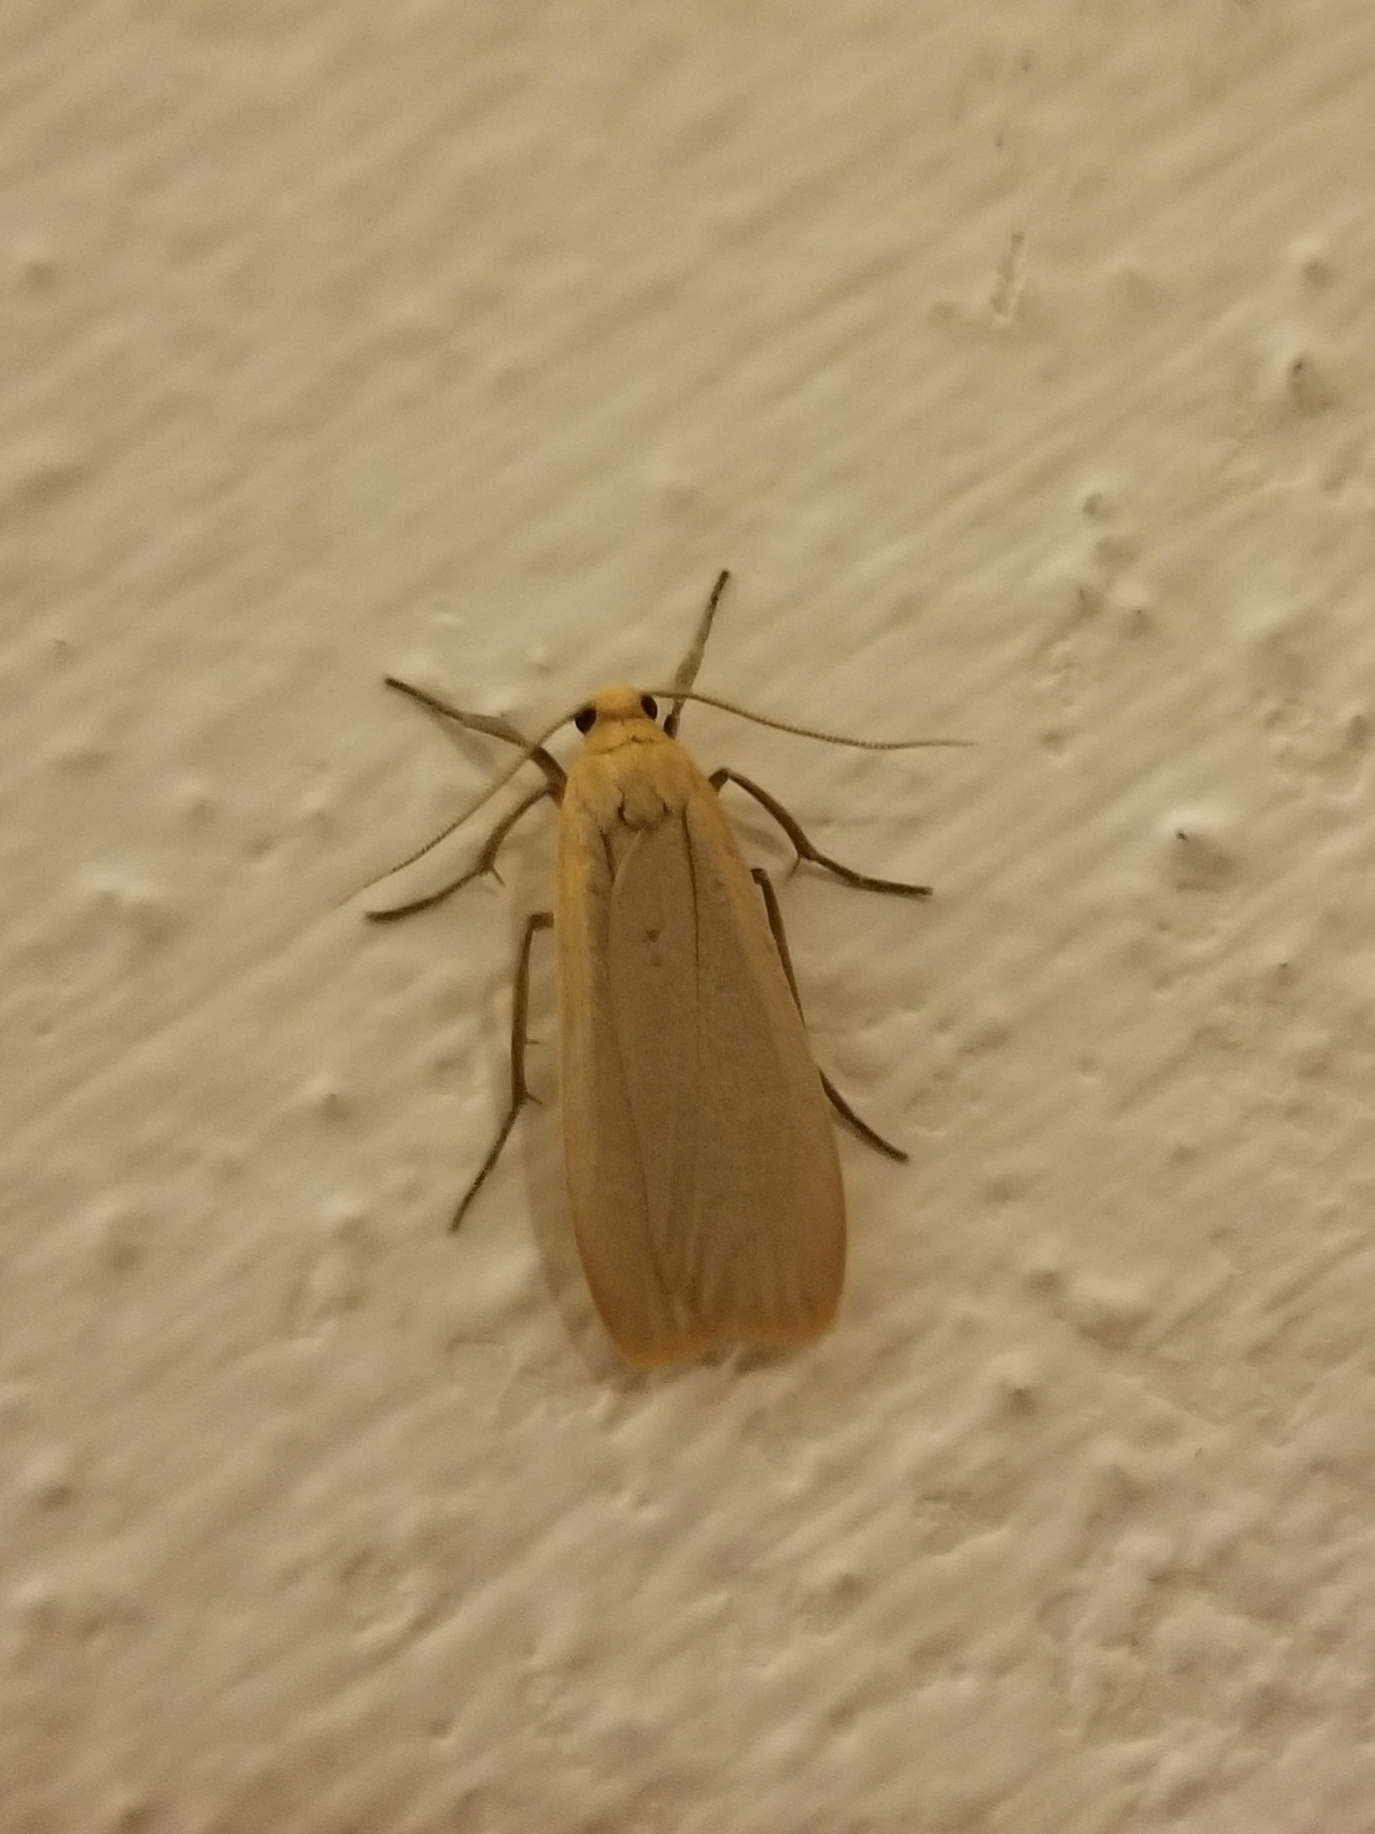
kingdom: Animalia
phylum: Arthropoda
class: Insecta
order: Lepidoptera
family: Erebidae
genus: Wittia
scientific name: Wittia sororcula
